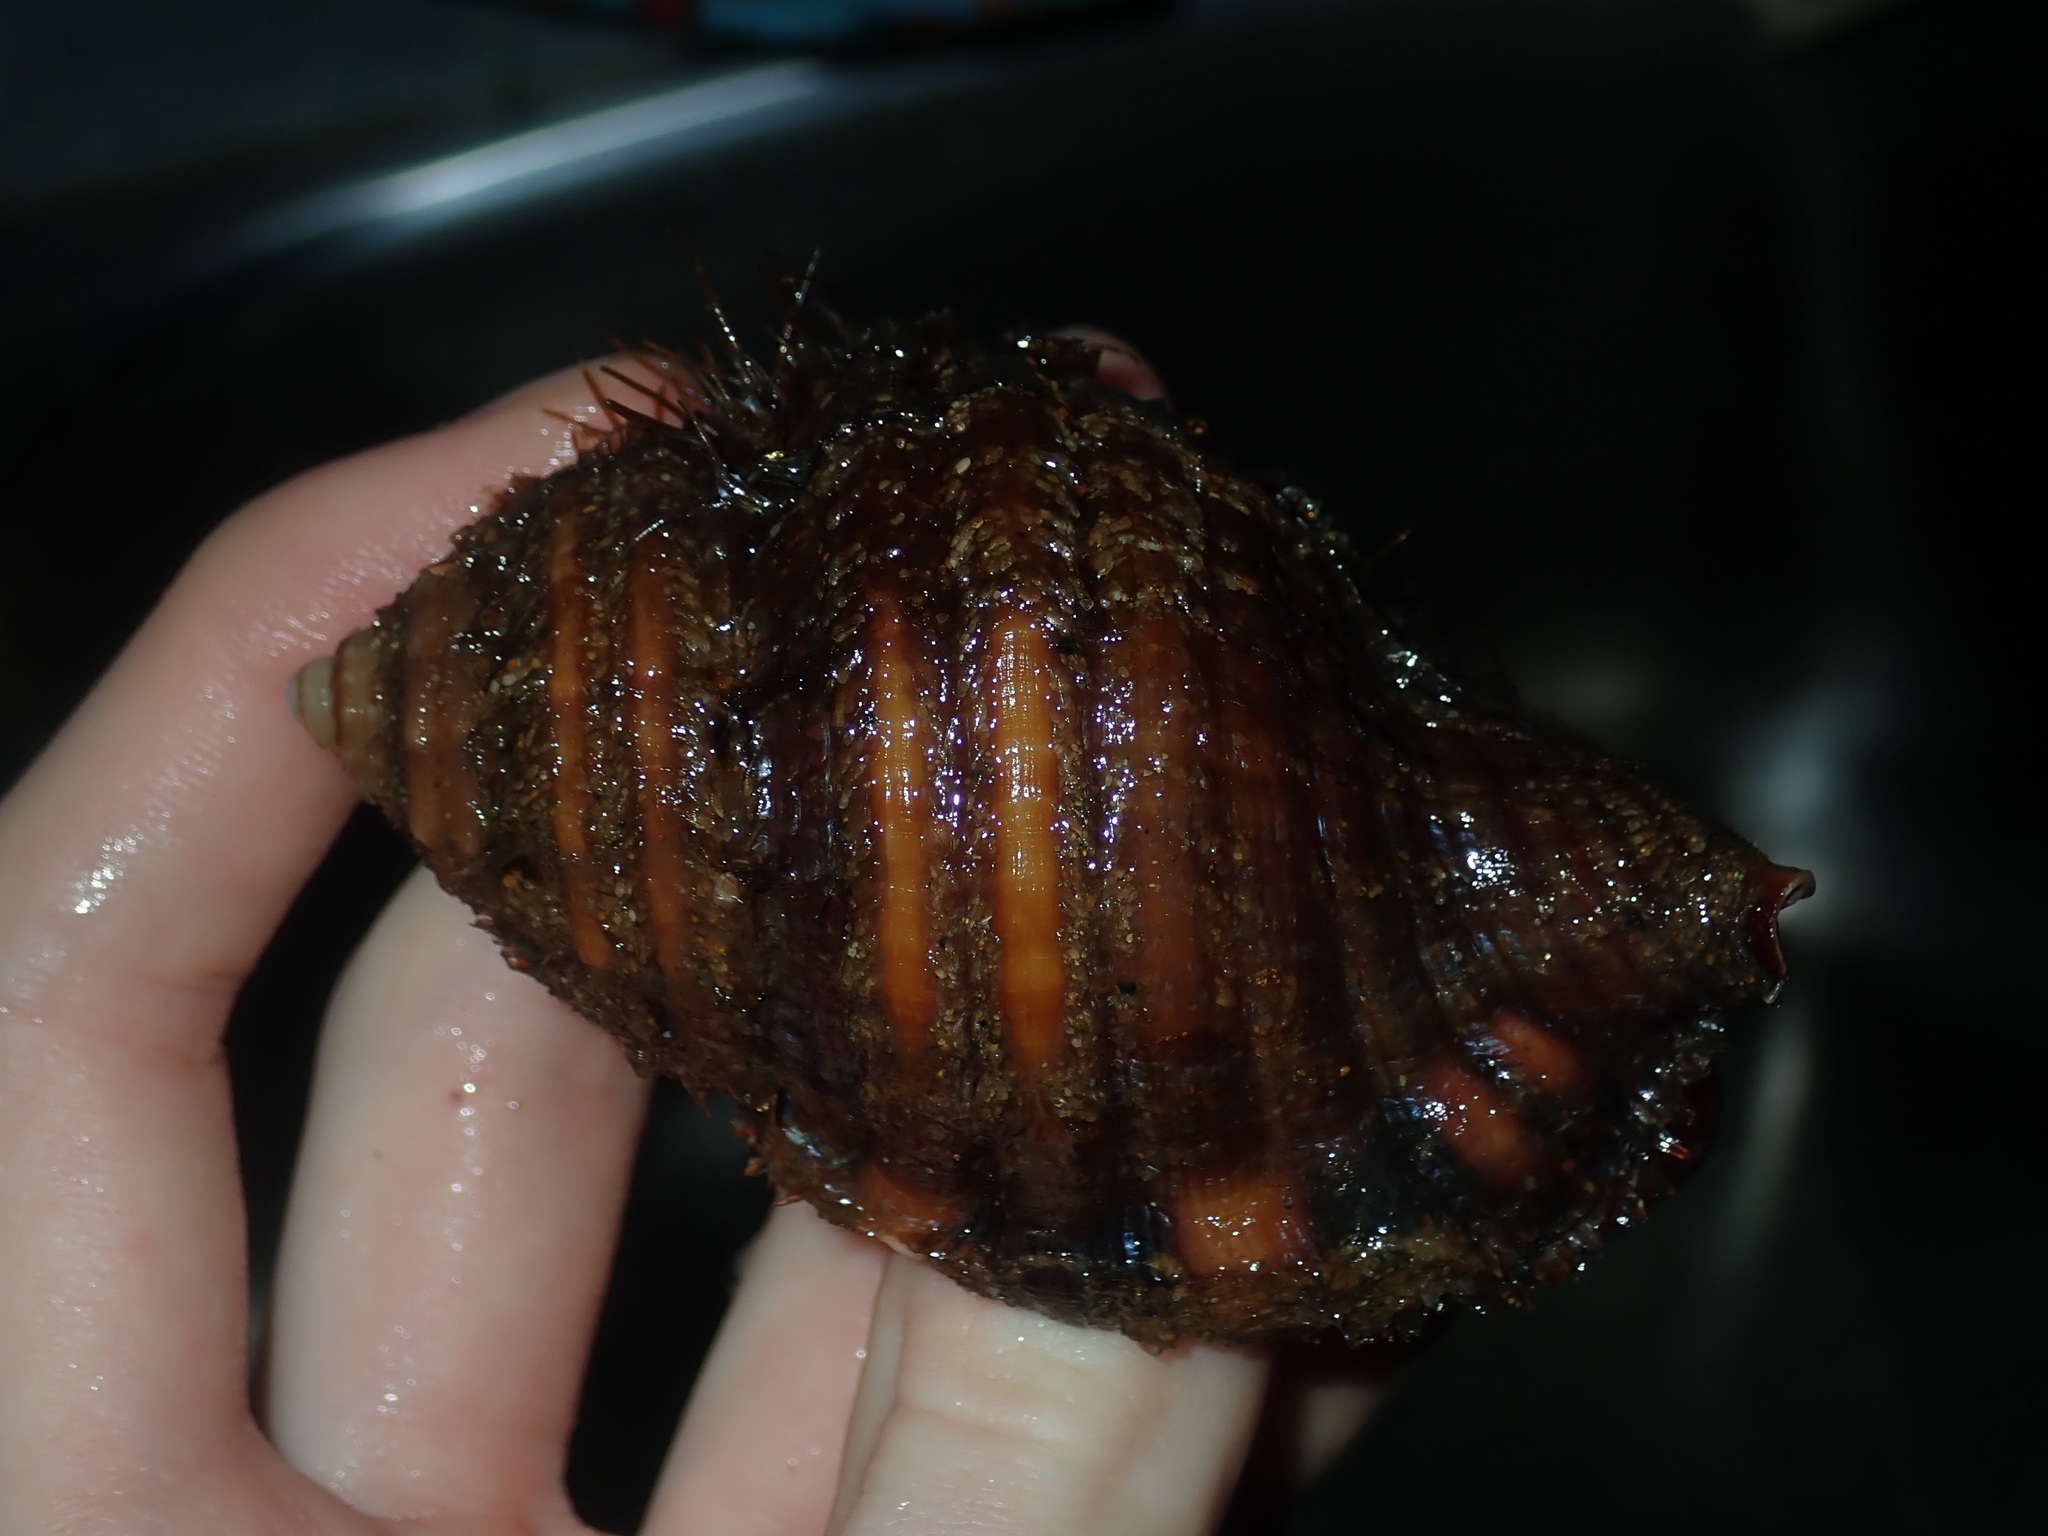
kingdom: Animalia
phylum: Mollusca
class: Gastropoda
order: Littorinimorpha
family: Cymatiidae
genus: Monoplex
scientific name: Monoplex parthenopeus
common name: Giant triton
